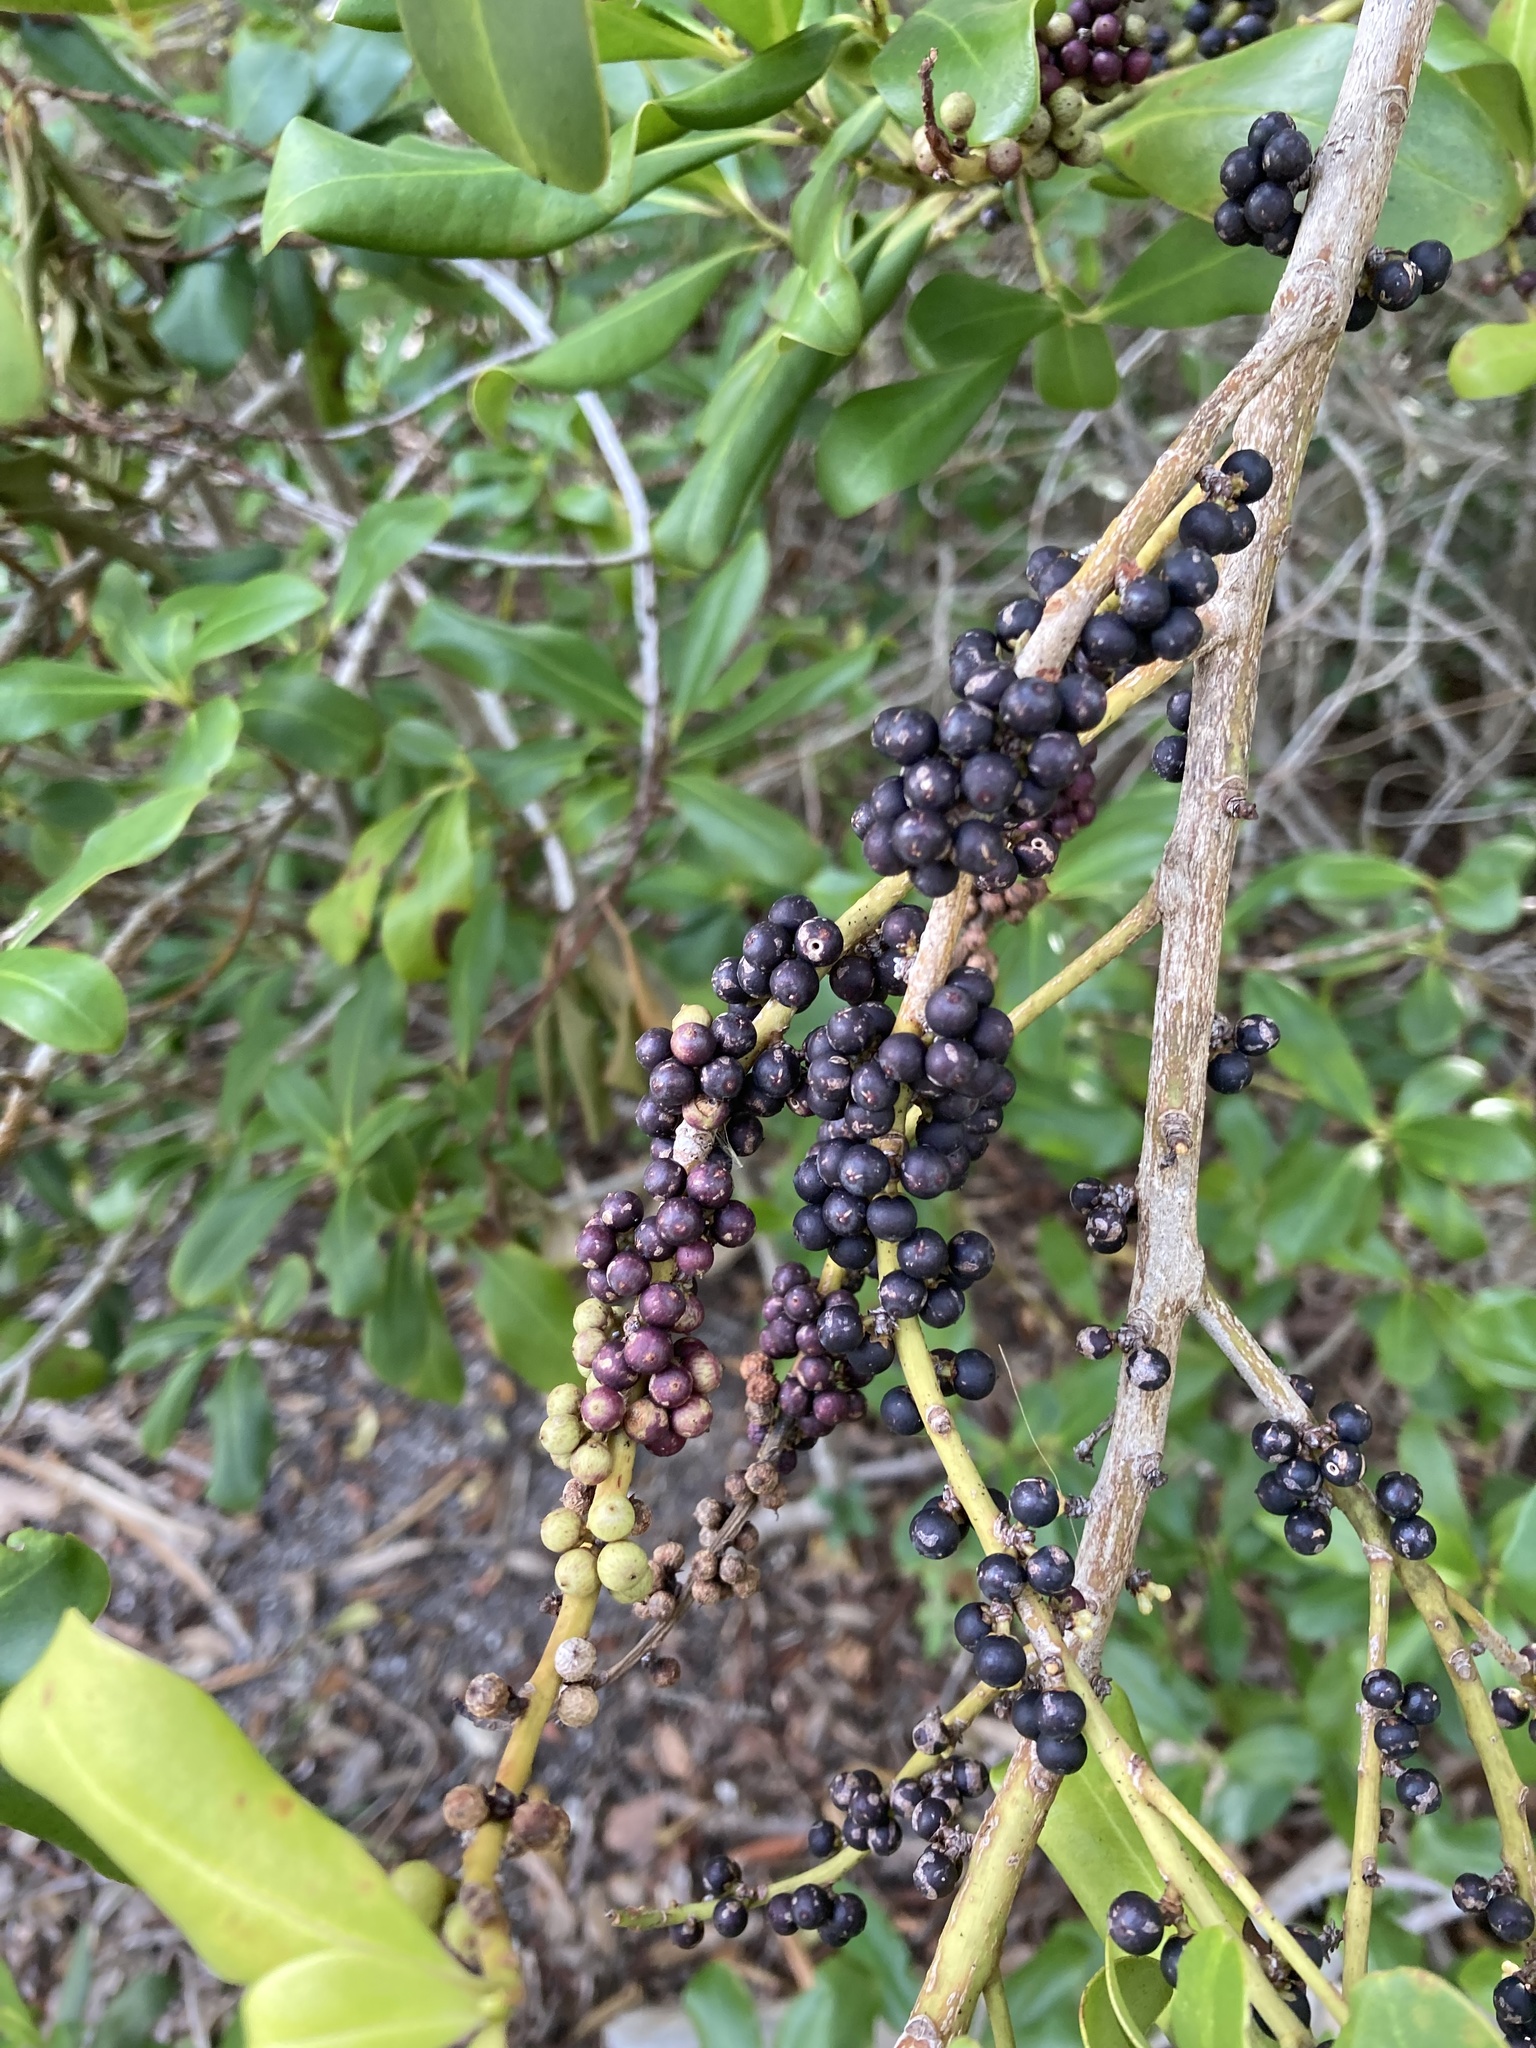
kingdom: Plantae
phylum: Tracheophyta
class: Magnoliopsida
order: Ericales
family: Primulaceae
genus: Myrsine
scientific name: Myrsine floridana
